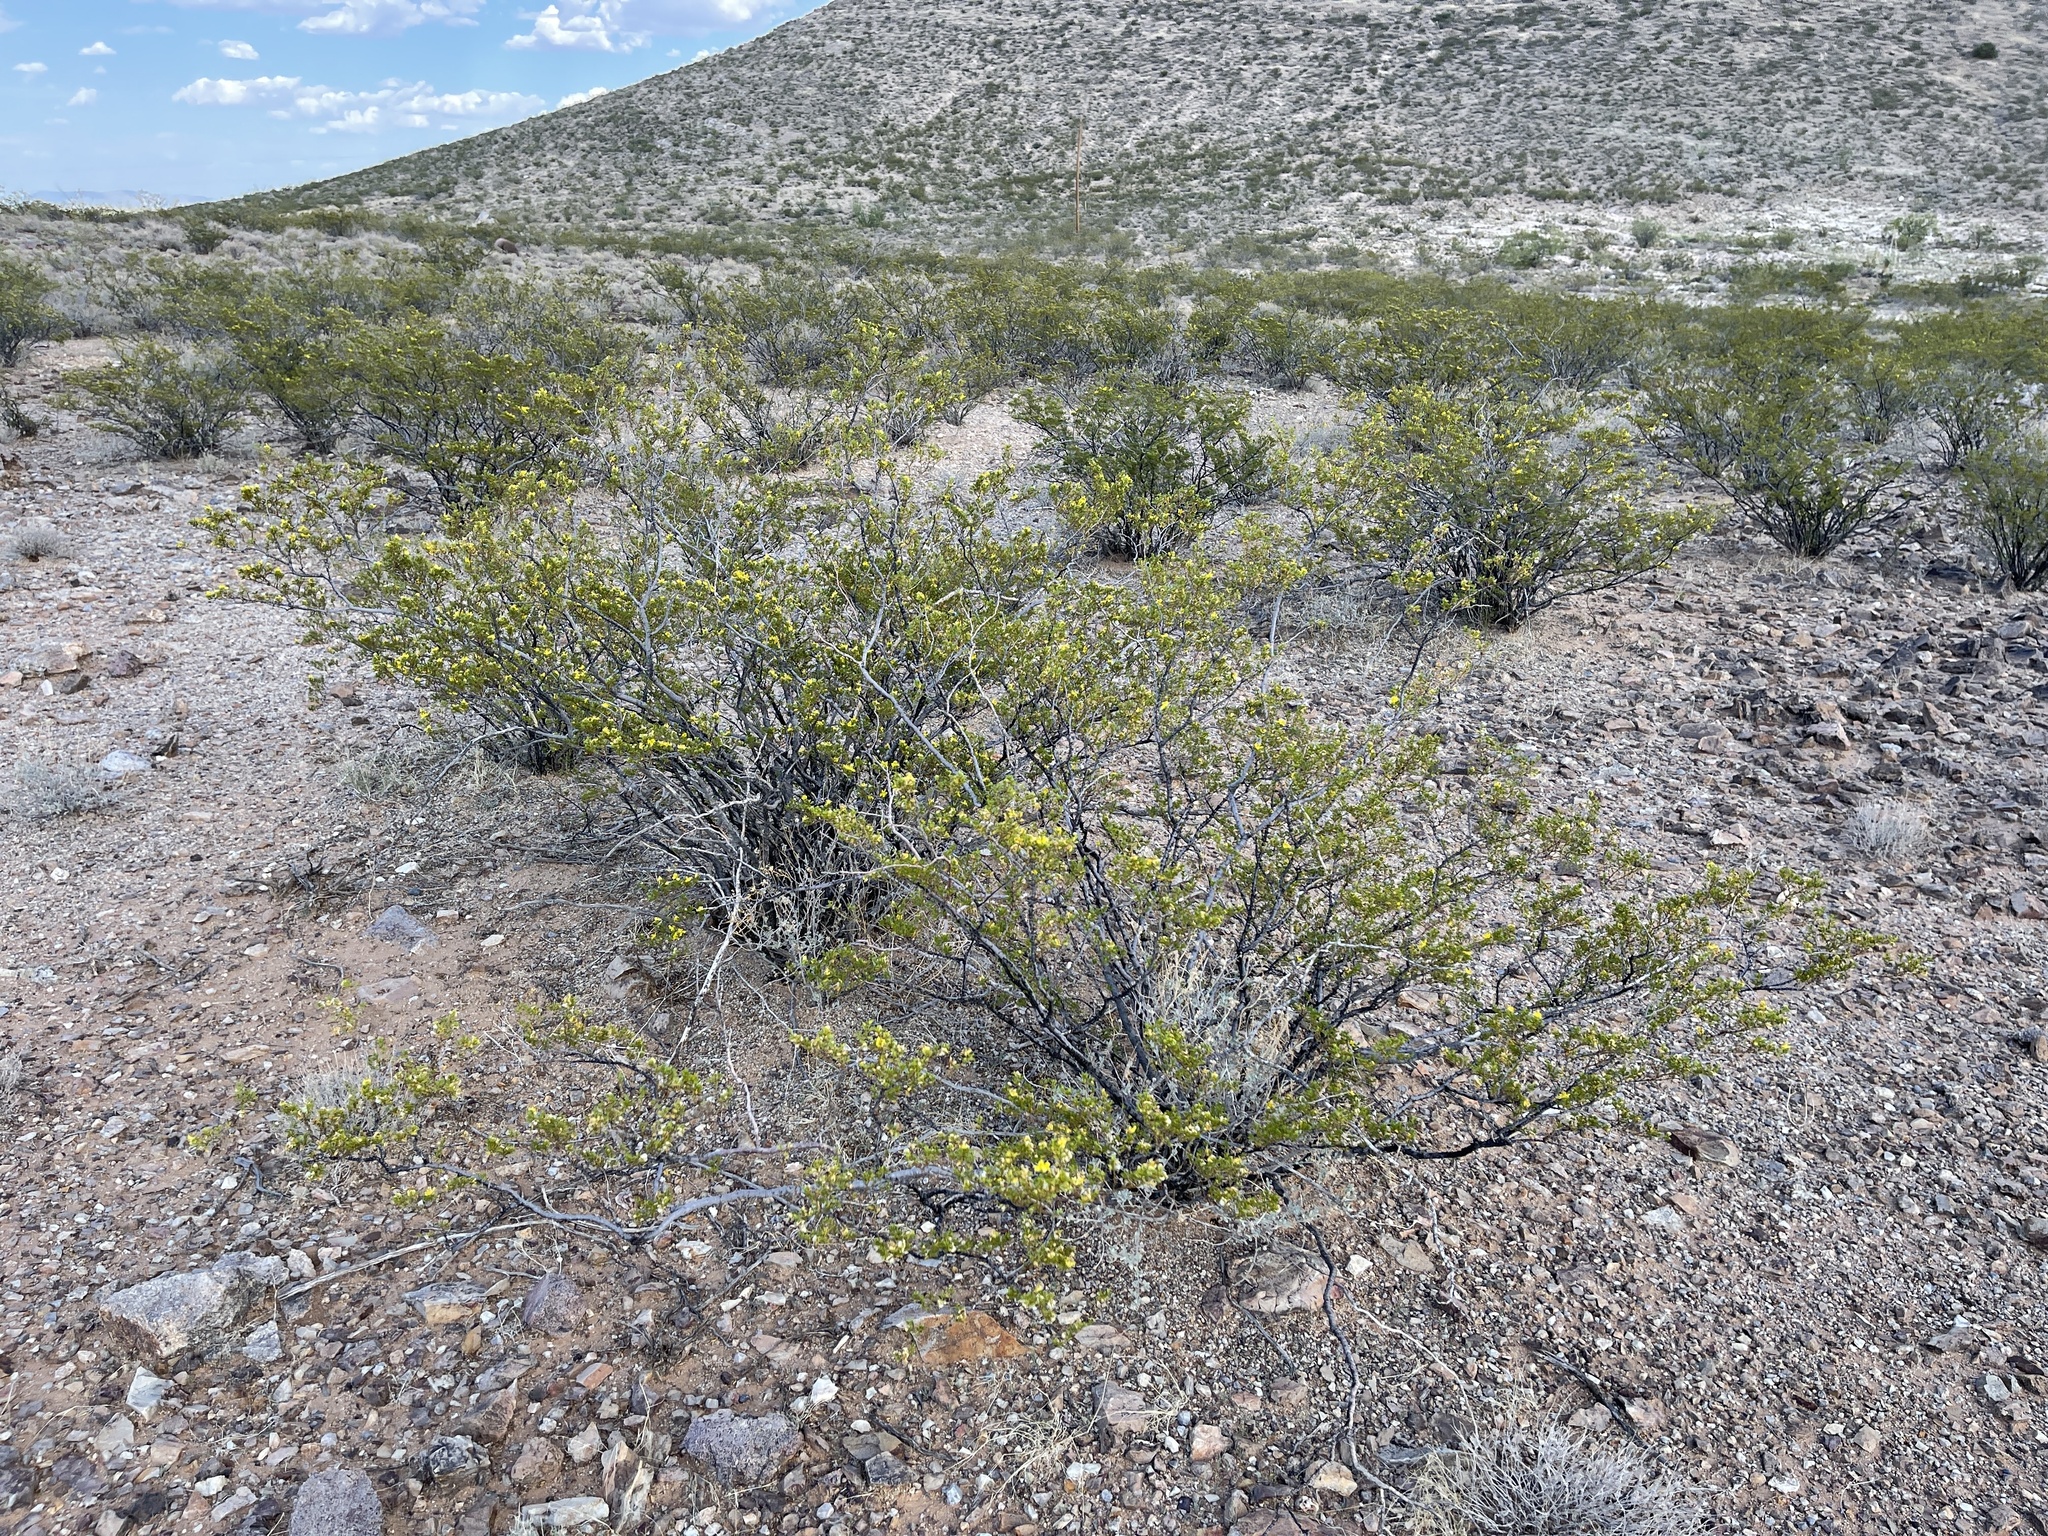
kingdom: Plantae
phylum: Tracheophyta
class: Magnoliopsida
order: Zygophyllales
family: Zygophyllaceae
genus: Larrea
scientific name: Larrea tridentata
